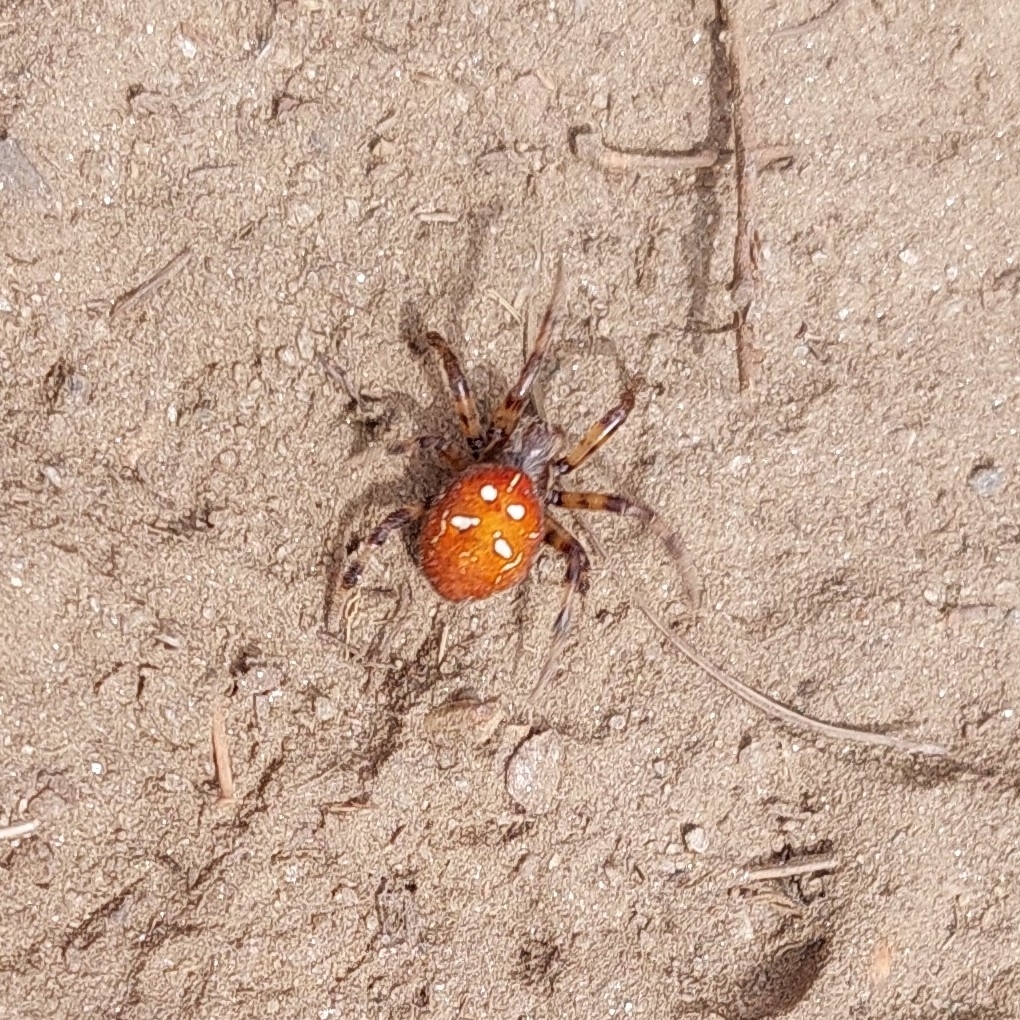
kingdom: Animalia
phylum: Arthropoda
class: Arachnida
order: Araneae
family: Araneidae
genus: Araneus
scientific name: Araneus quadratus
